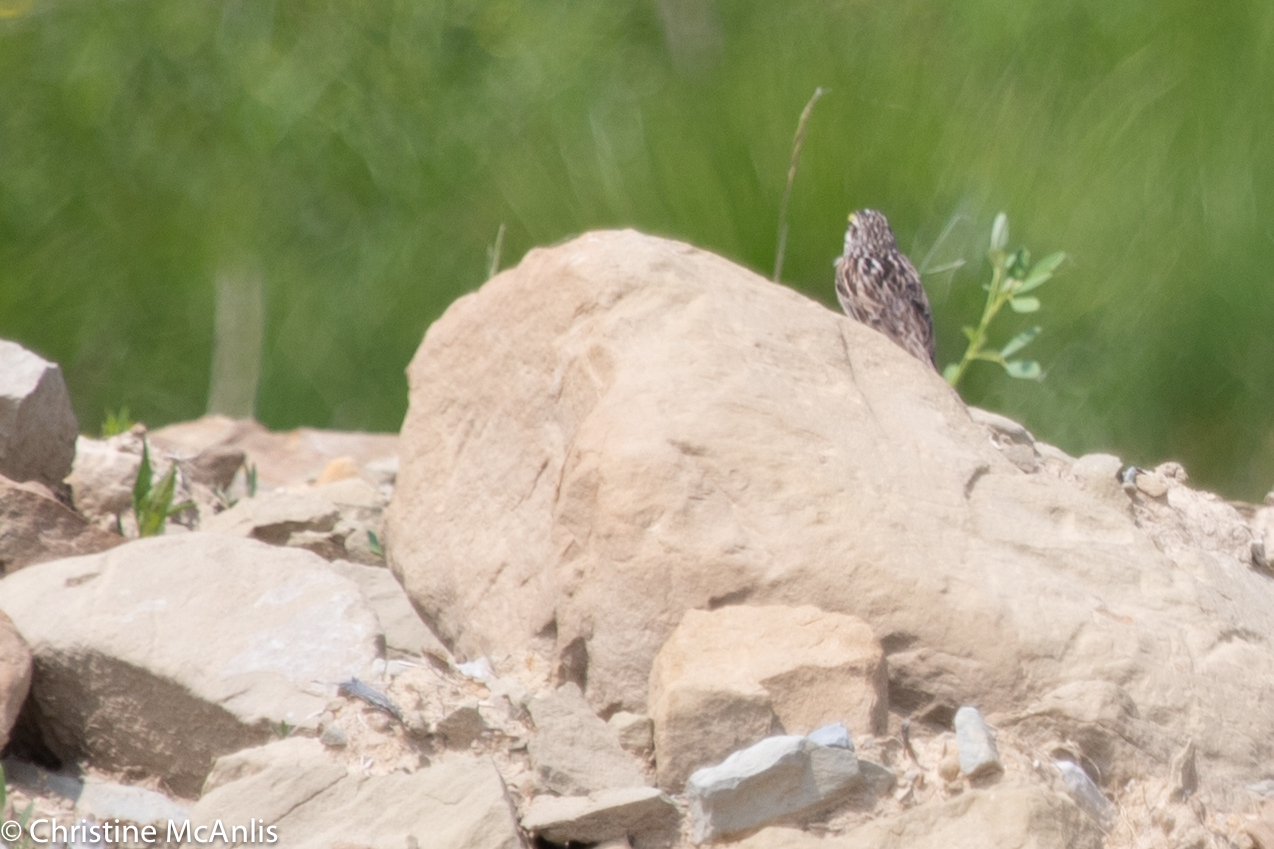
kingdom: Animalia
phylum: Chordata
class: Aves
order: Passeriformes
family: Passerellidae
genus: Passerculus
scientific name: Passerculus sandwichensis
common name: Savannah sparrow
